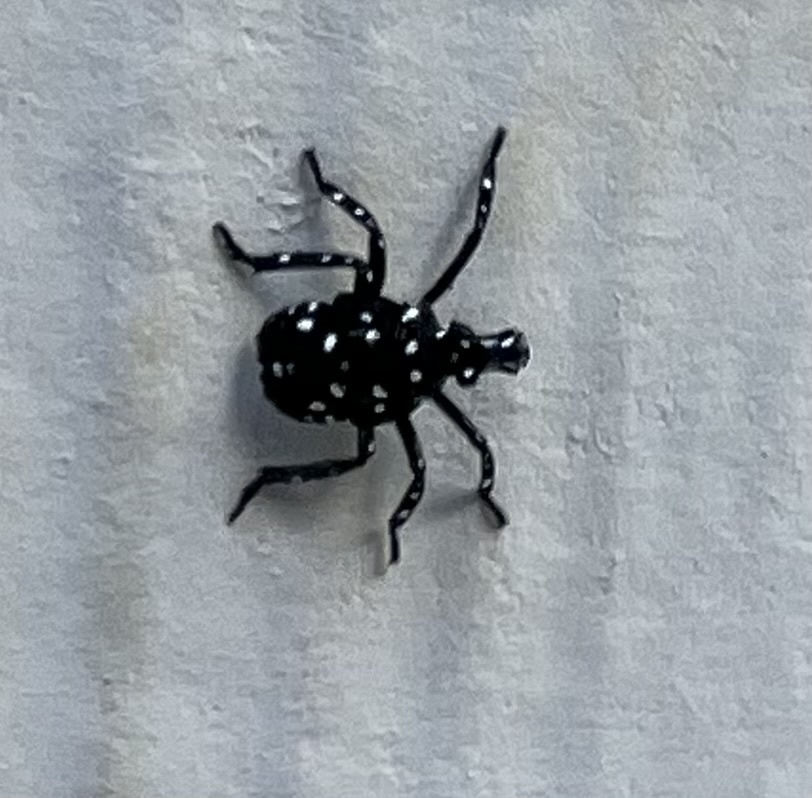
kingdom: Animalia
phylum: Arthropoda
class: Insecta
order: Hemiptera
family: Fulgoridae
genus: Lycorma
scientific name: Lycorma delicatula
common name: Spotted lanternfly
